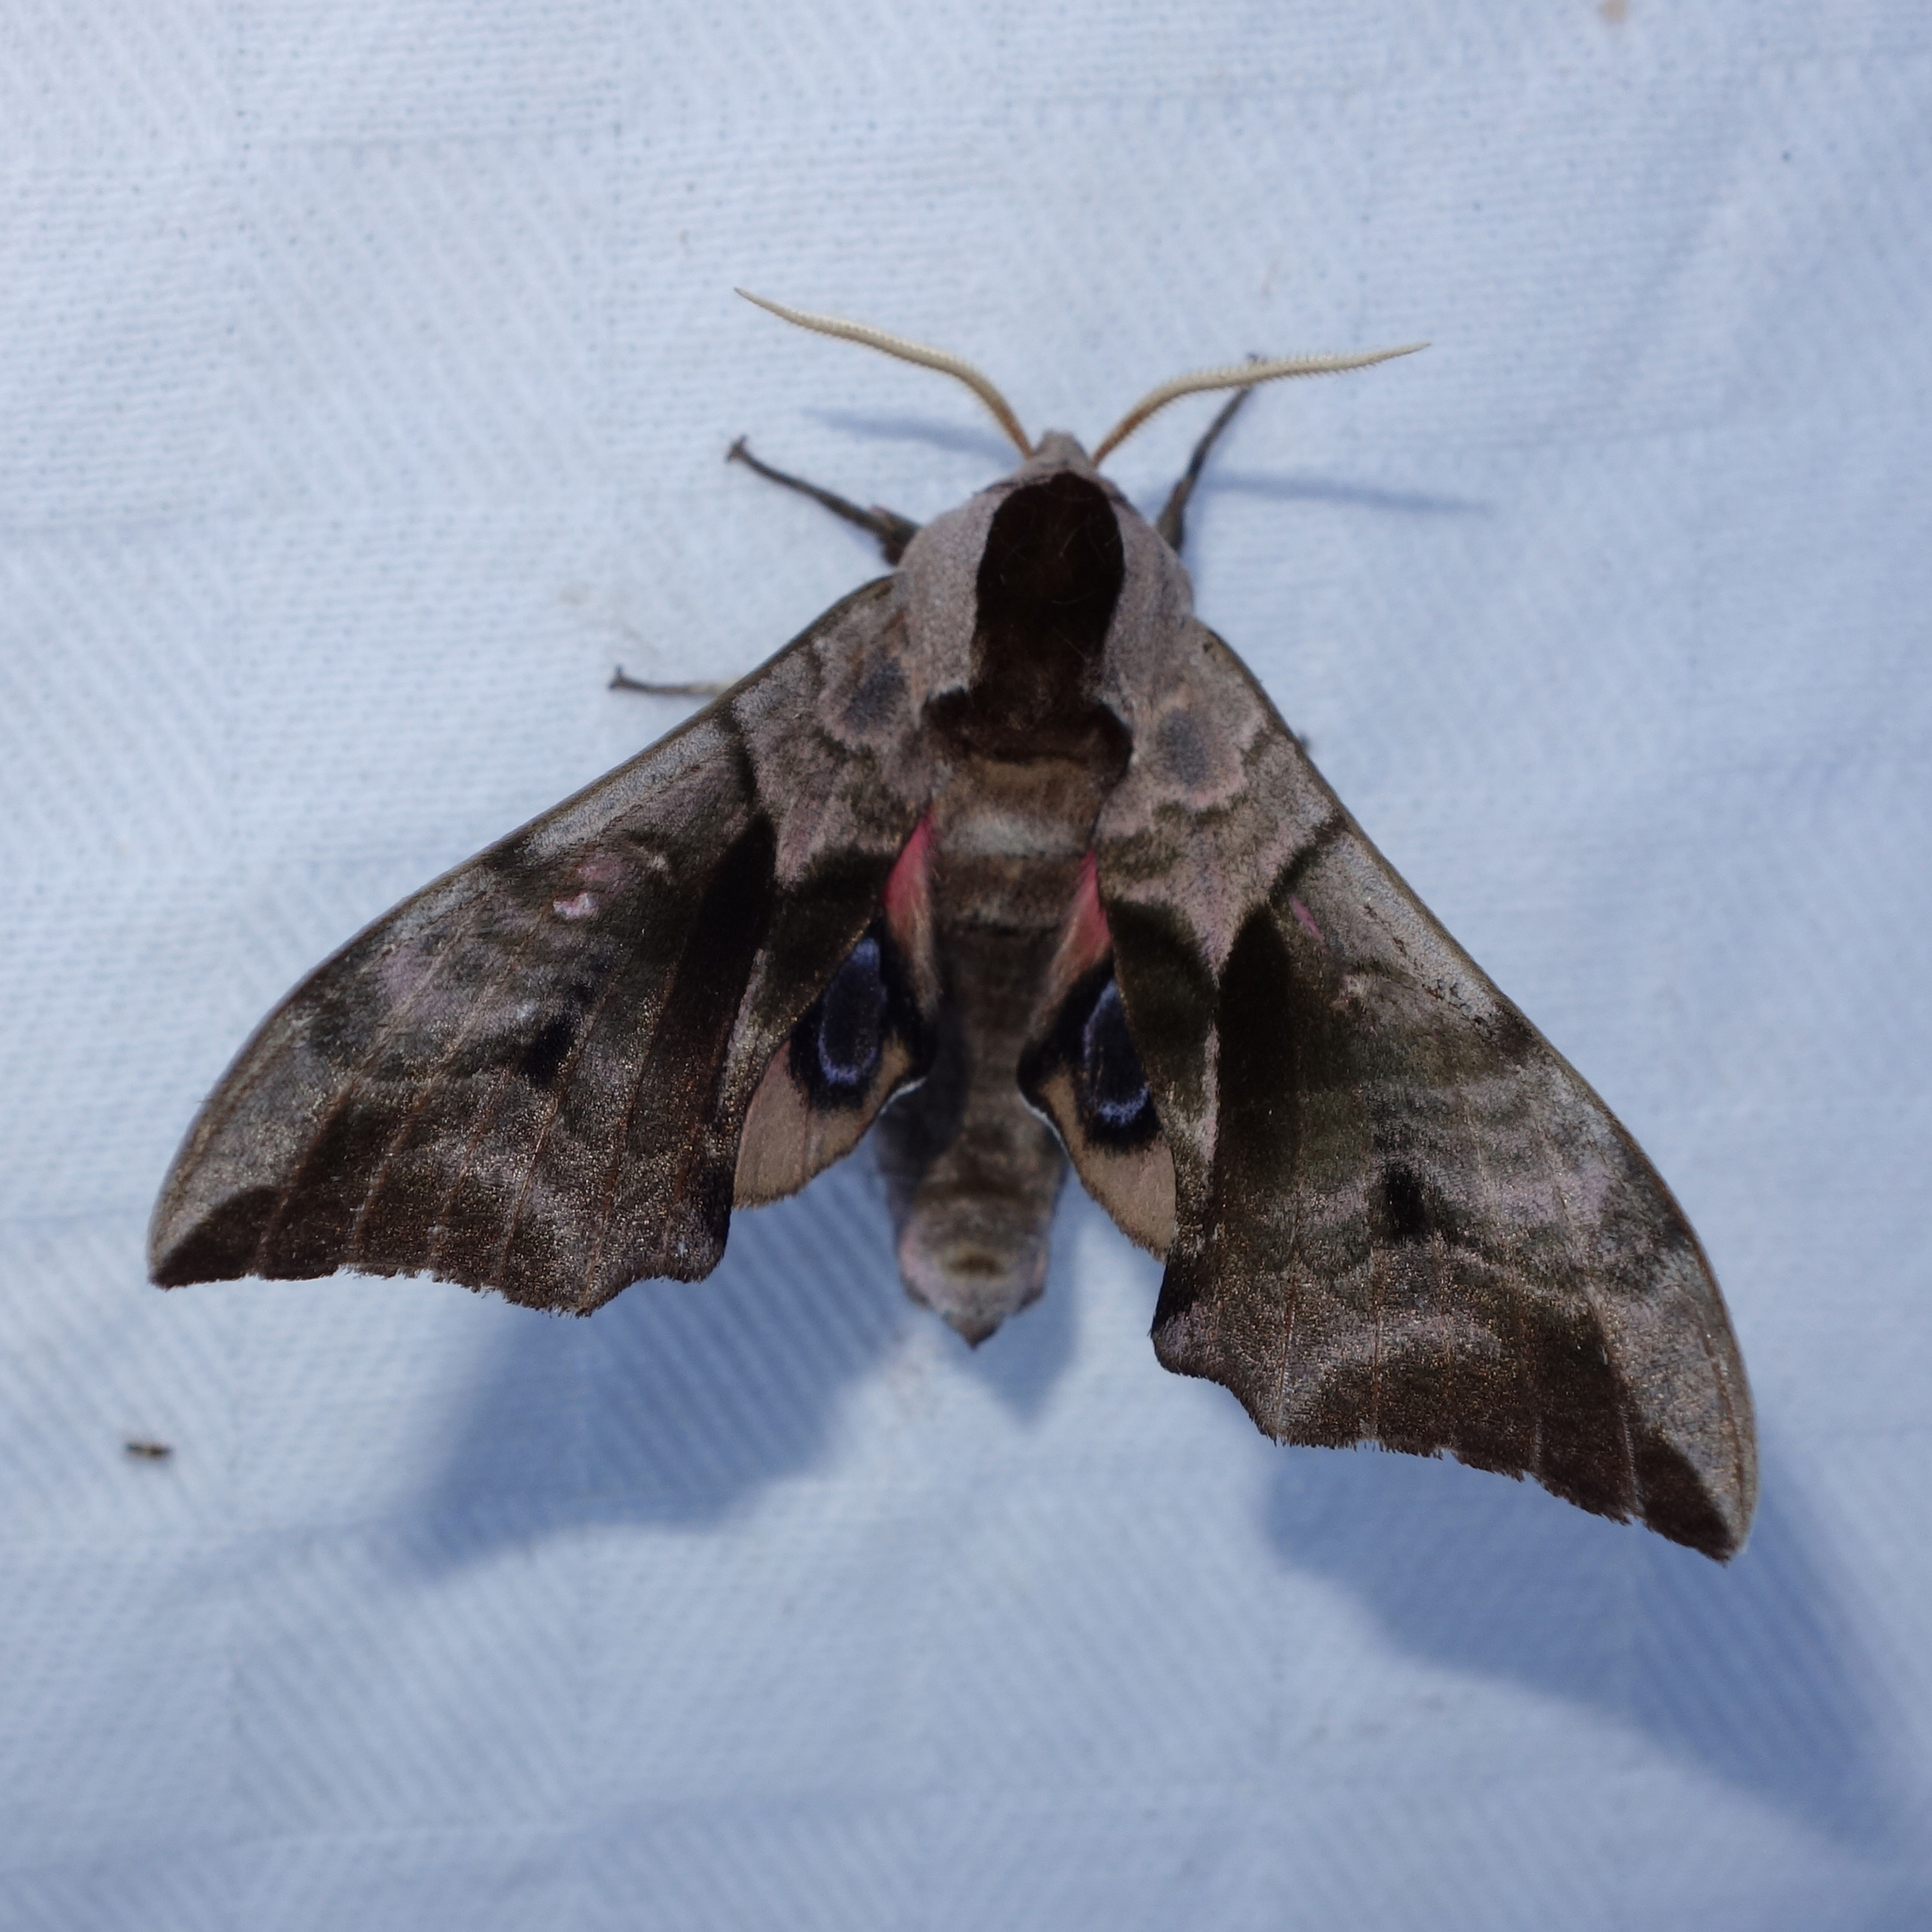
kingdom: Animalia
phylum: Arthropoda
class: Insecta
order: Lepidoptera
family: Sphingidae
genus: Smerinthus
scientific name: Smerinthus ocellata
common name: Eyed hawk-moth
